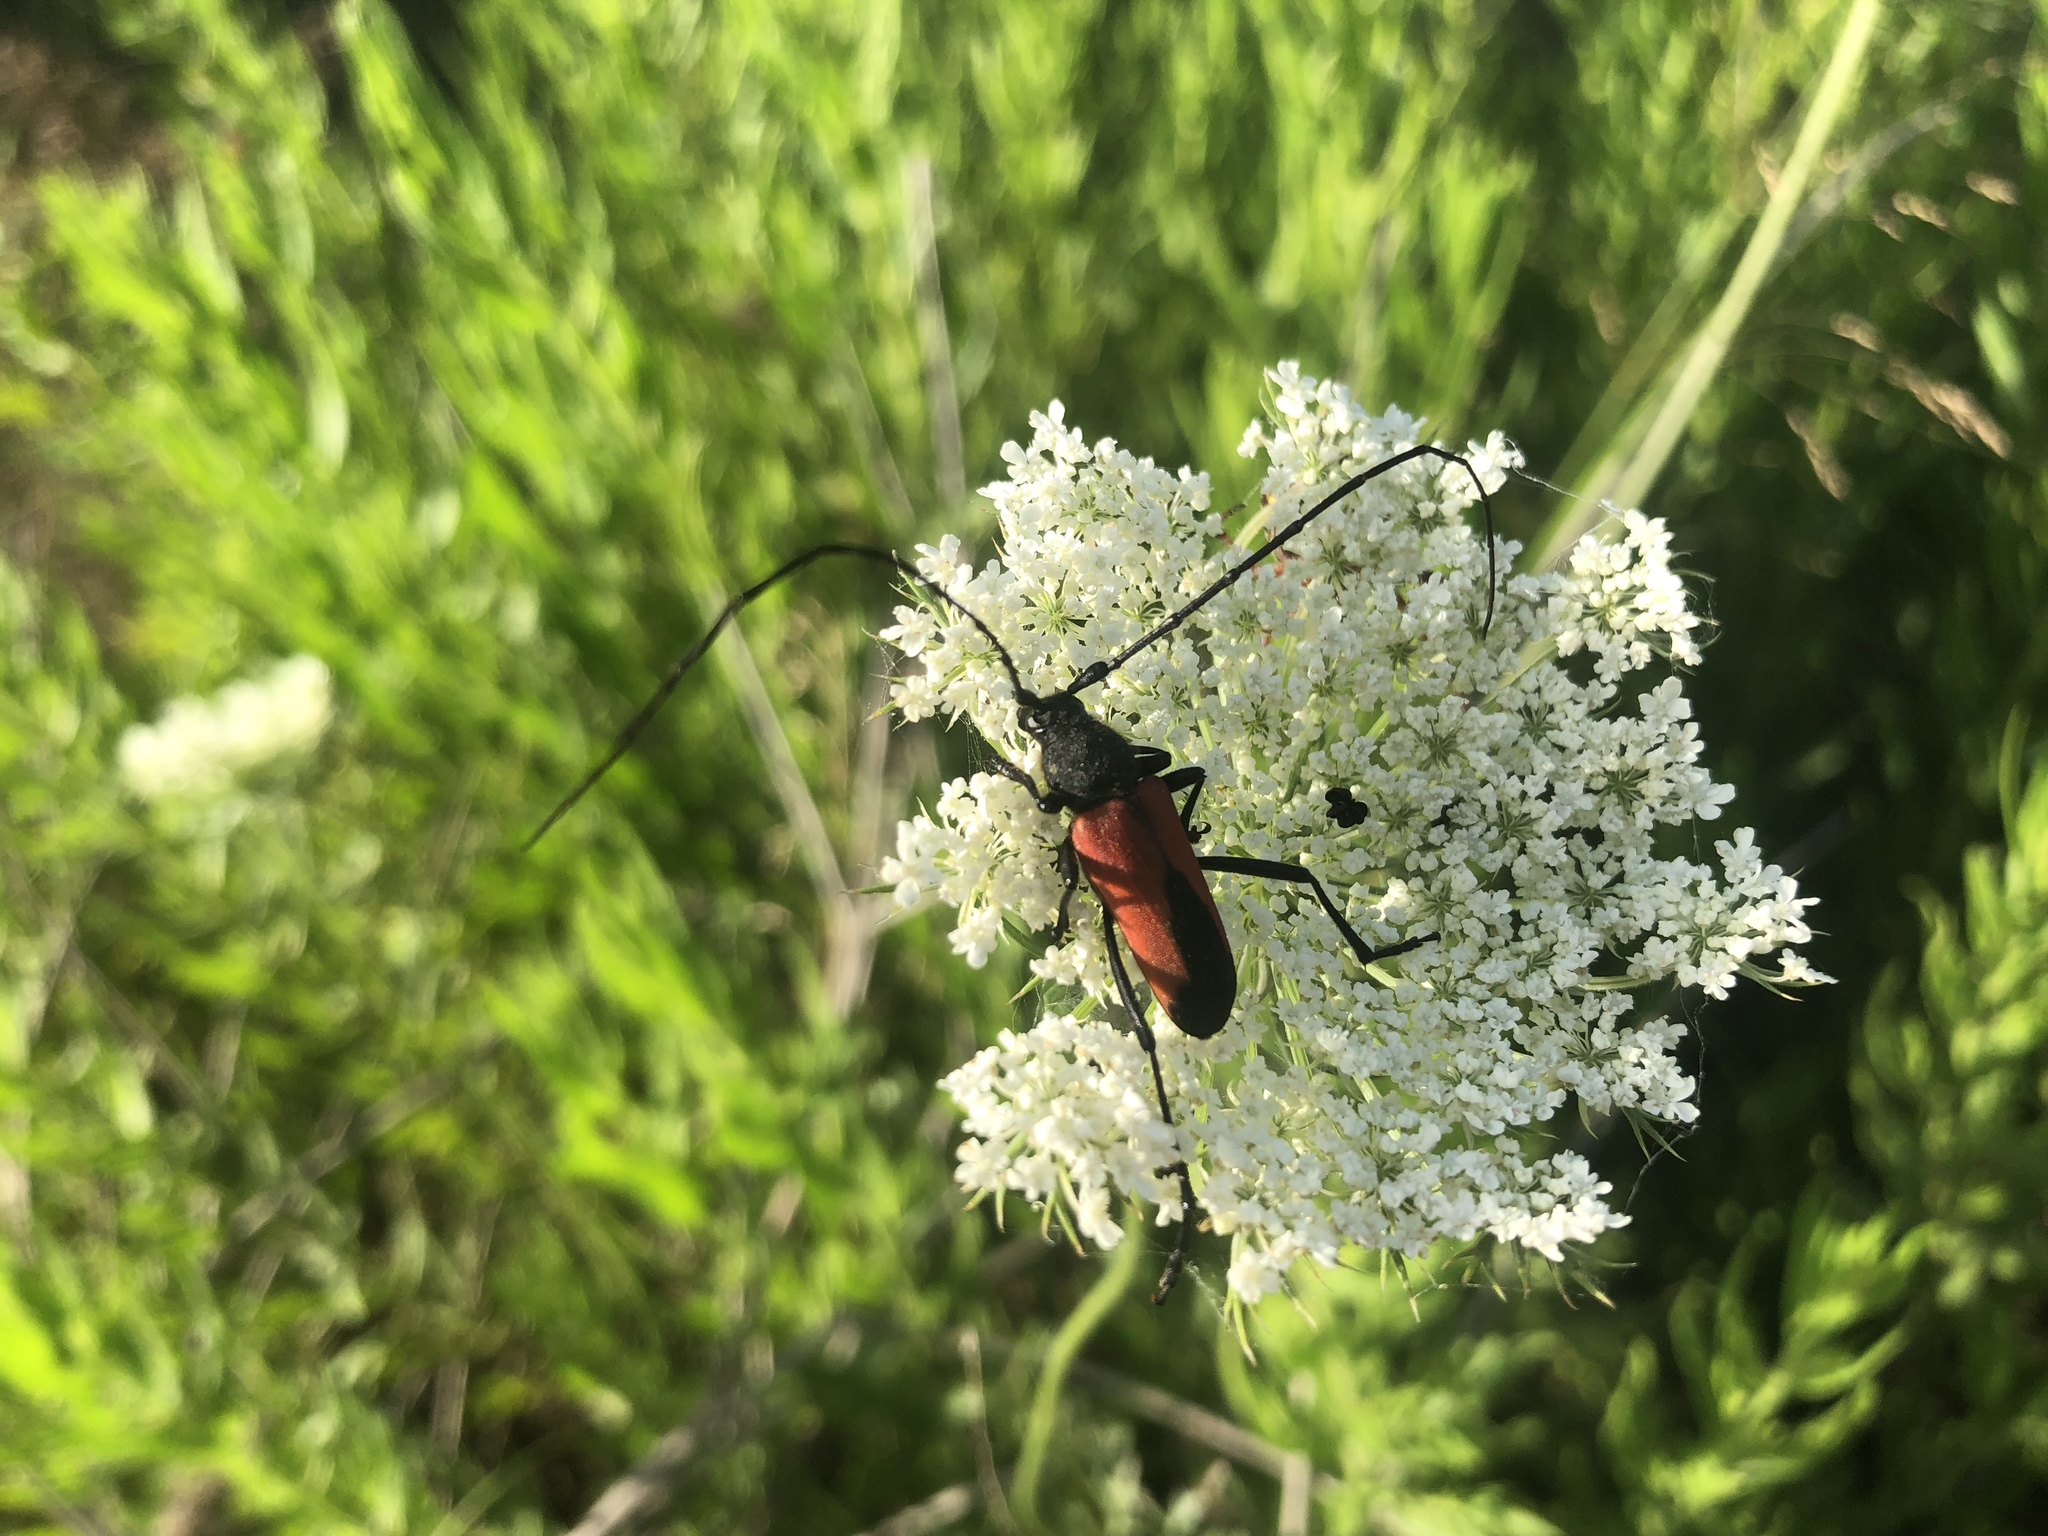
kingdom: Animalia
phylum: Arthropoda
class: Insecta
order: Coleoptera
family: Cerambycidae
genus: Purpuricenus
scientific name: Purpuricenus budensis
